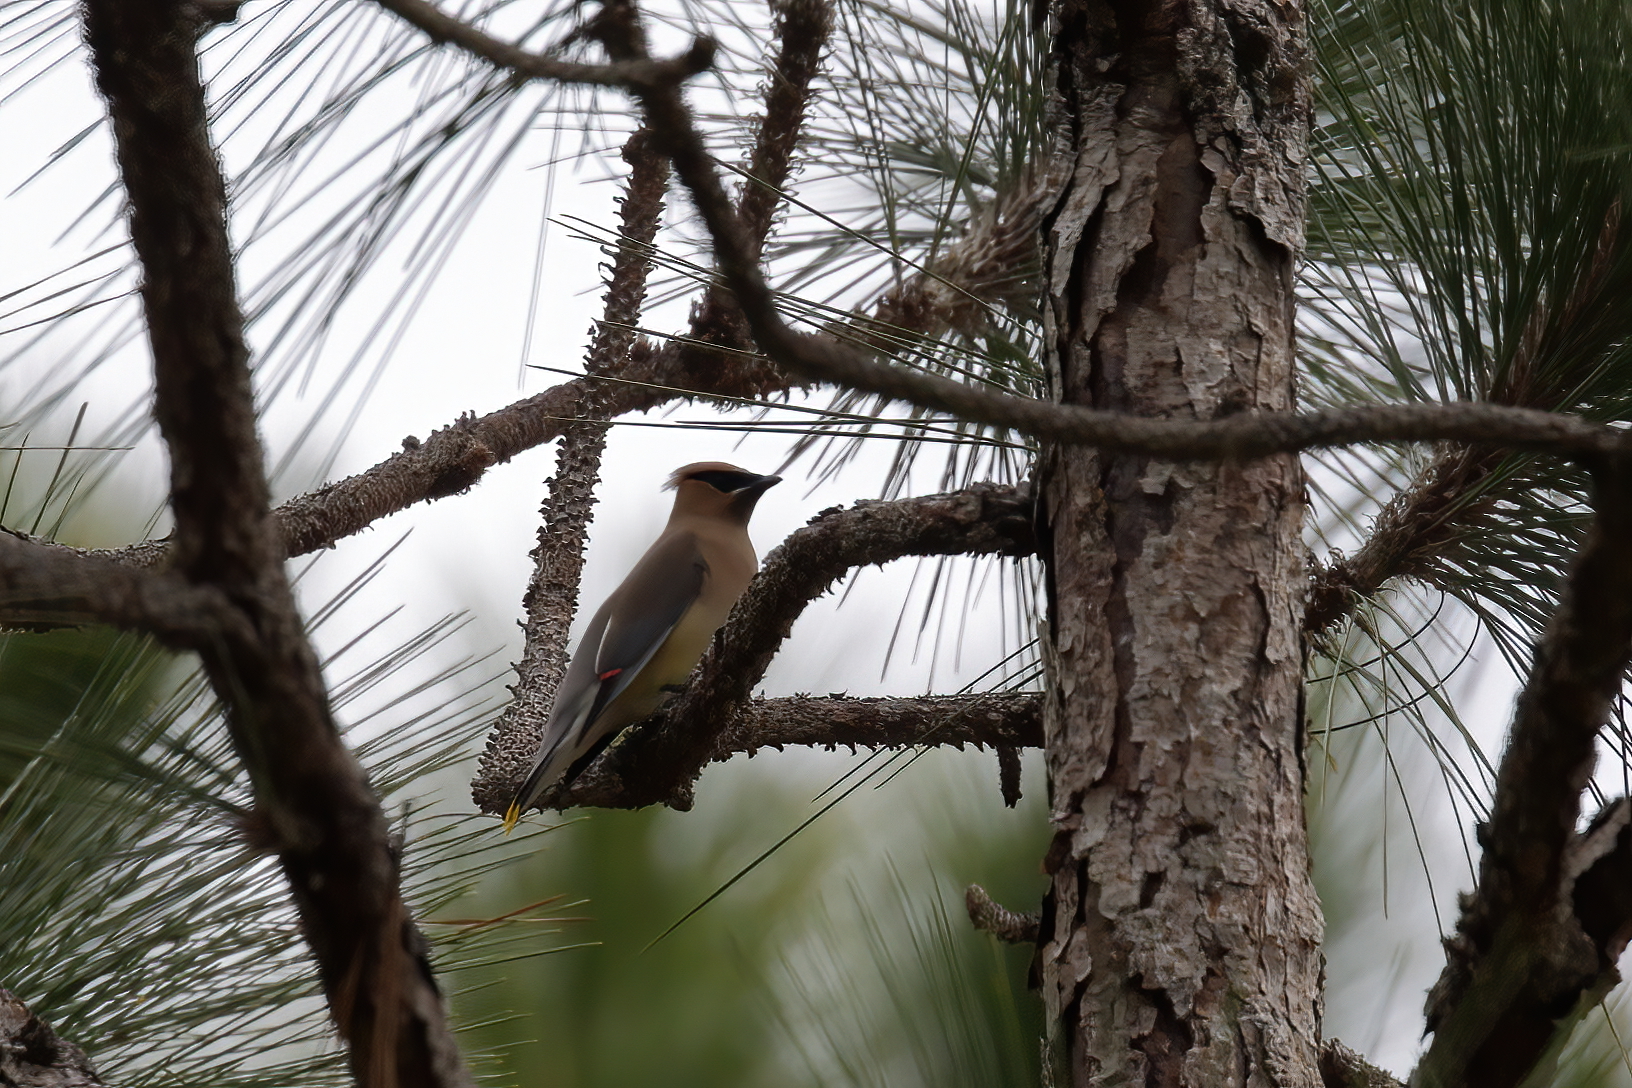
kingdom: Animalia
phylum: Chordata
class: Aves
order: Passeriformes
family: Bombycillidae
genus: Bombycilla
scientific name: Bombycilla cedrorum
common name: Cedar waxwing
